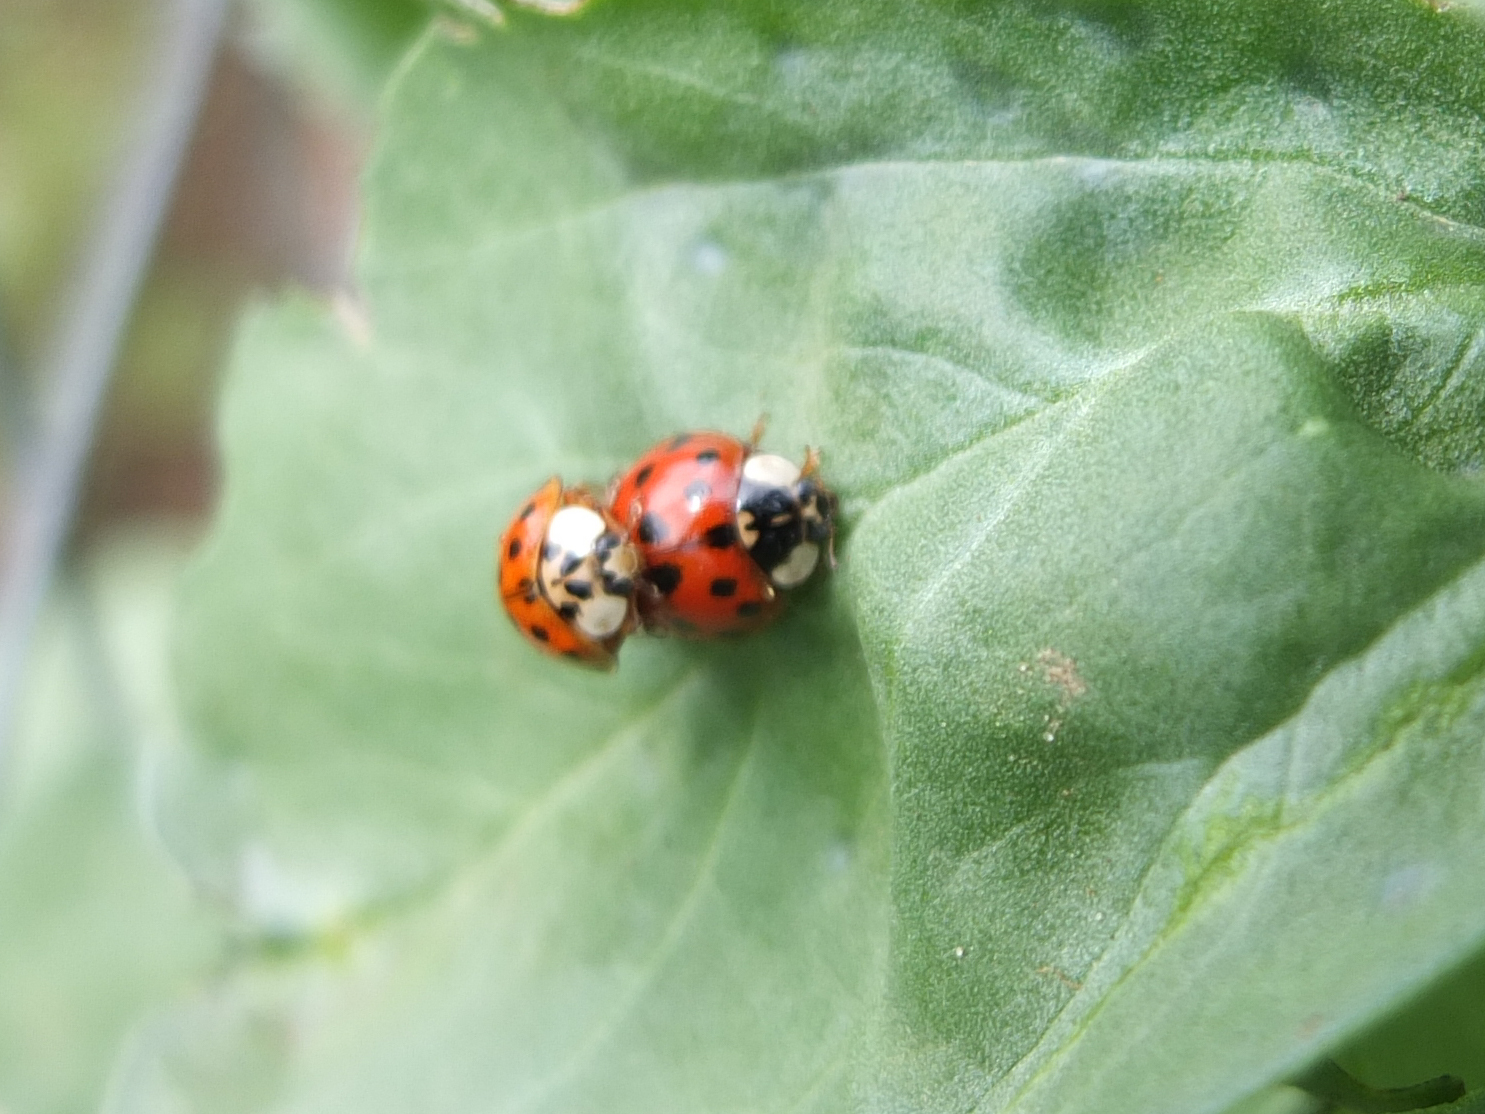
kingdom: Animalia
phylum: Arthropoda
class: Insecta
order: Coleoptera
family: Coccinellidae
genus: Harmonia
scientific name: Harmonia axyridis
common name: Harlequin ladybird
